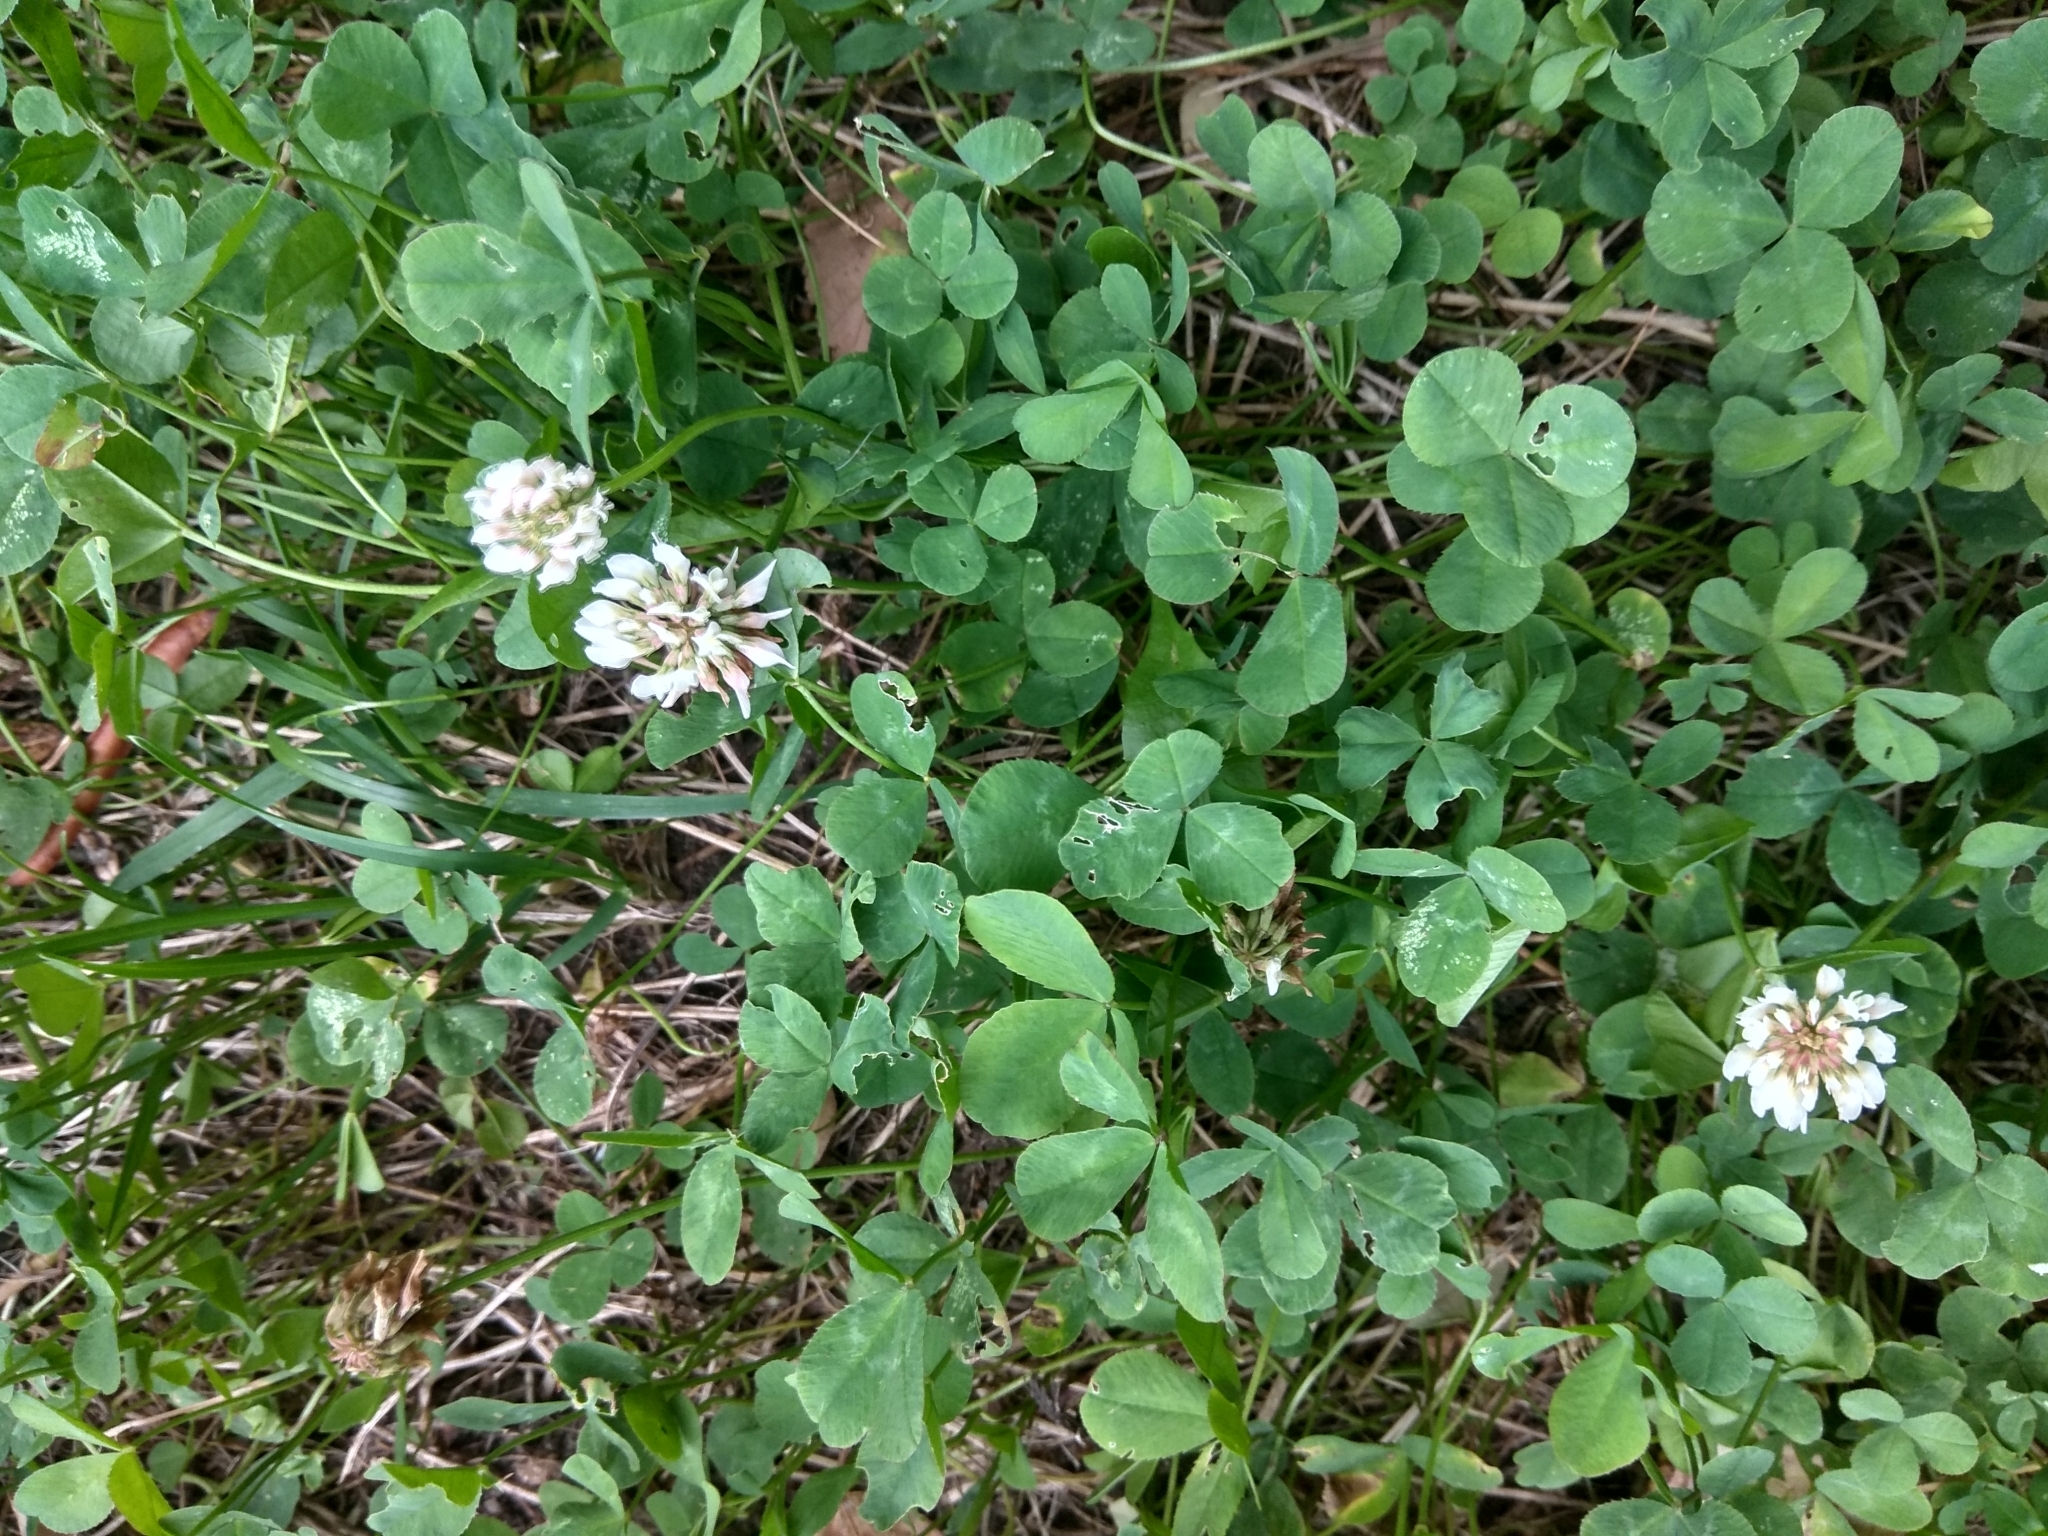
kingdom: Plantae
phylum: Tracheophyta
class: Magnoliopsida
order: Fabales
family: Fabaceae
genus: Trifolium
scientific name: Trifolium repens
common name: White clover
